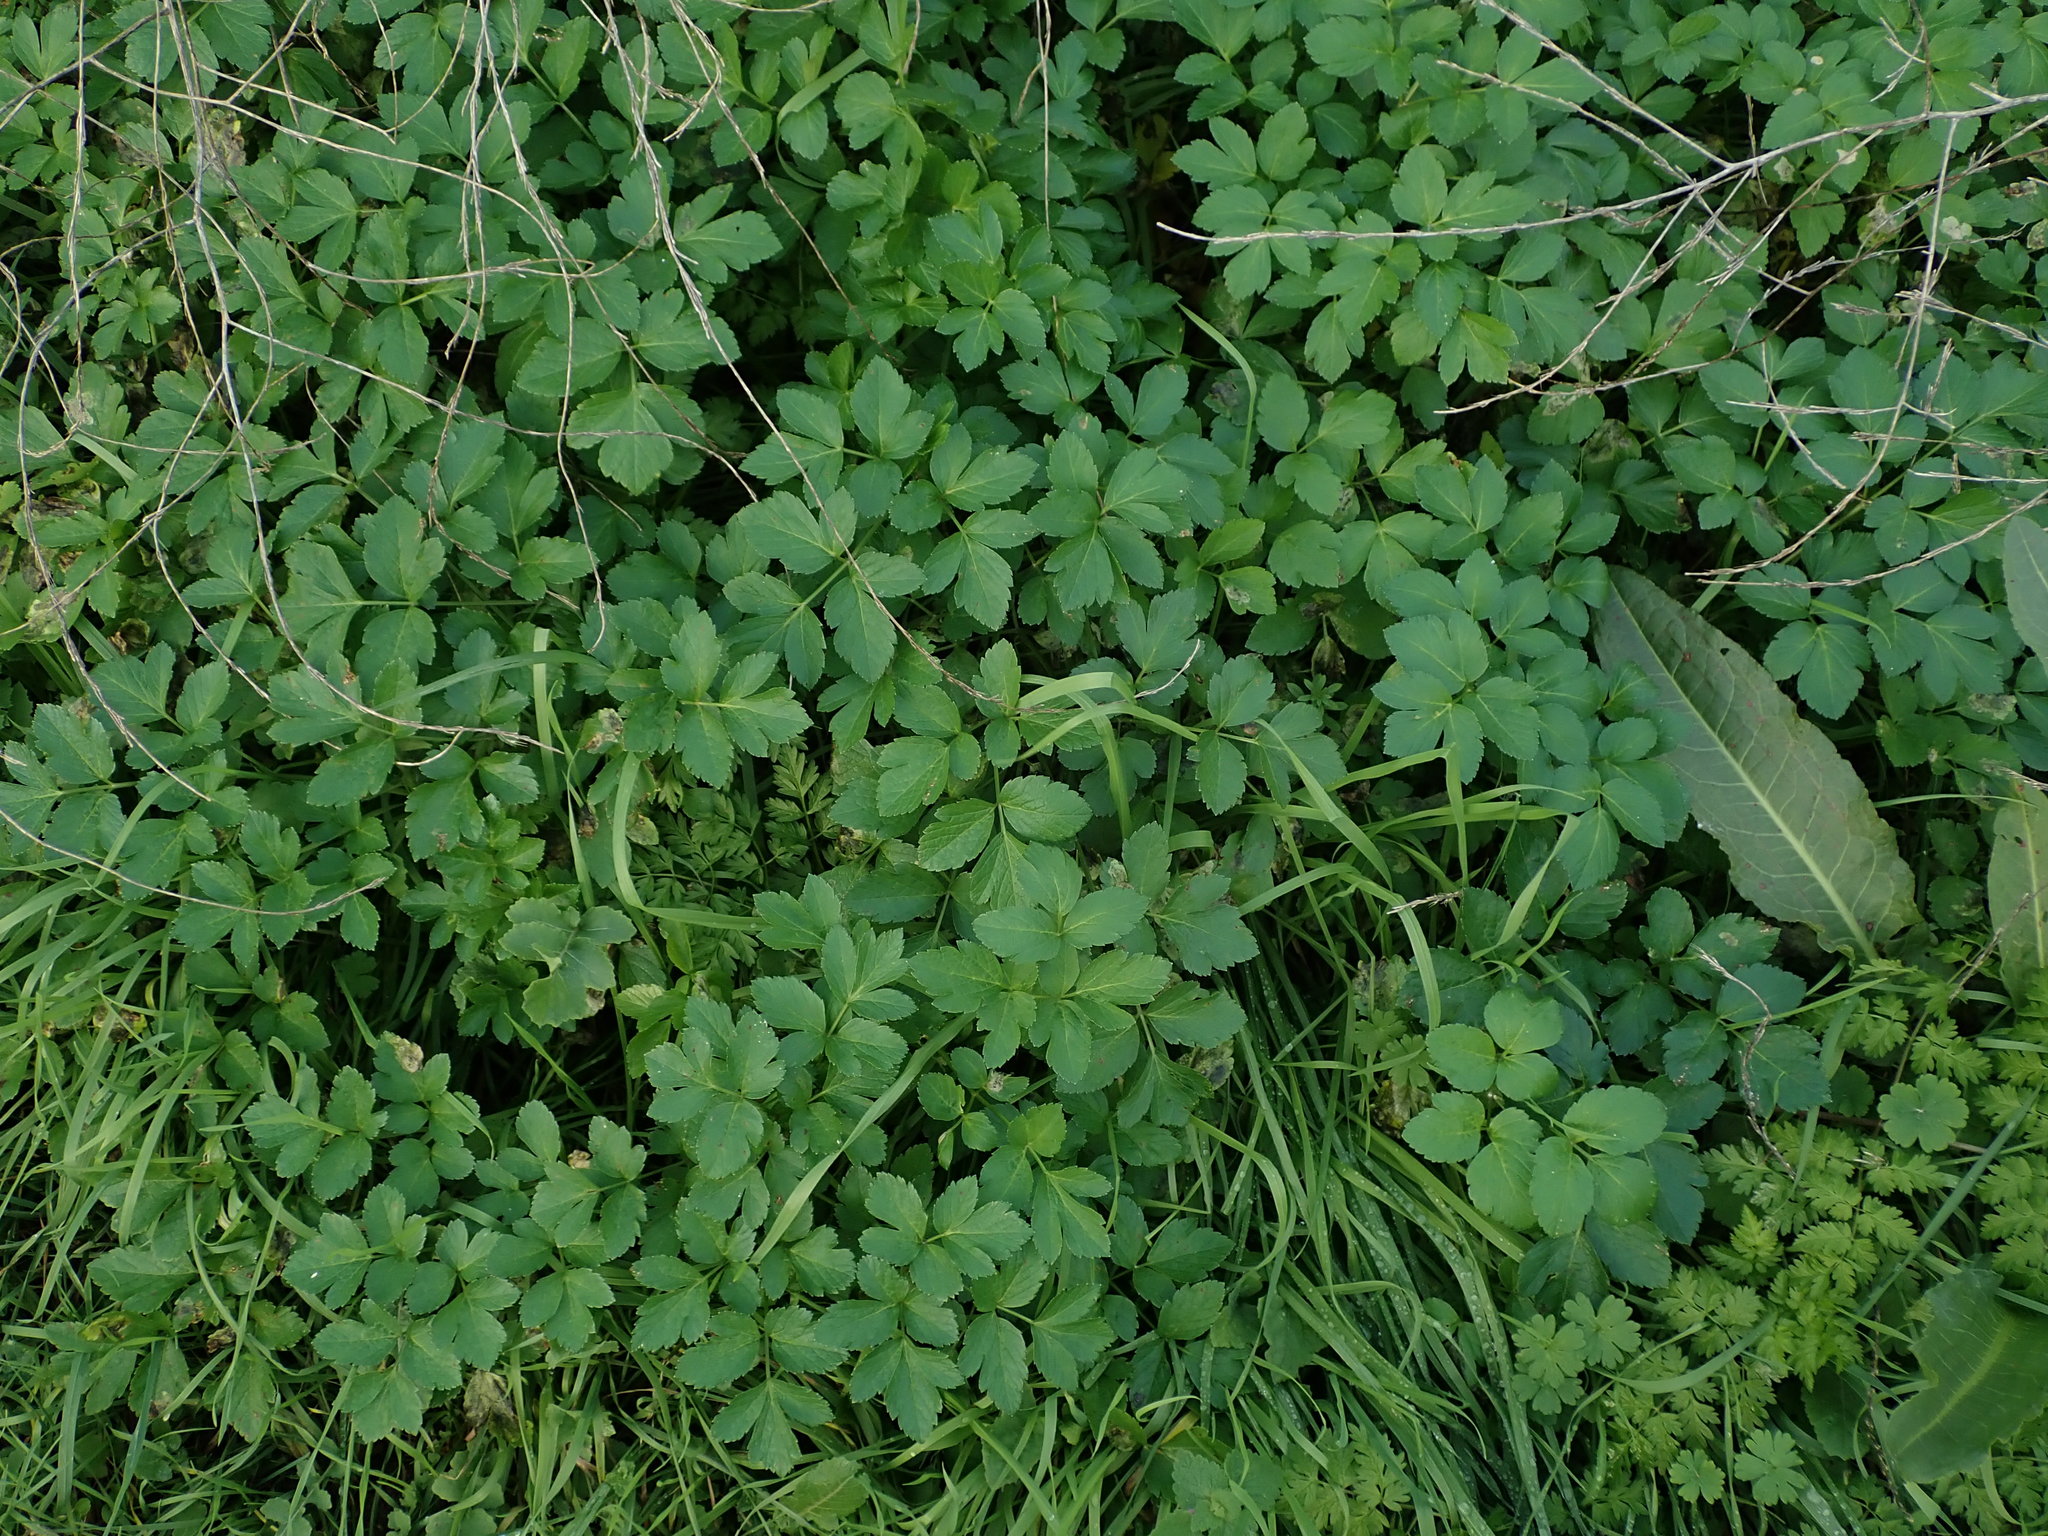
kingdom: Plantae
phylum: Tracheophyta
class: Magnoliopsida
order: Apiales
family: Apiaceae
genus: Smyrnium
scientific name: Smyrnium olusatrum
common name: Alexanders
